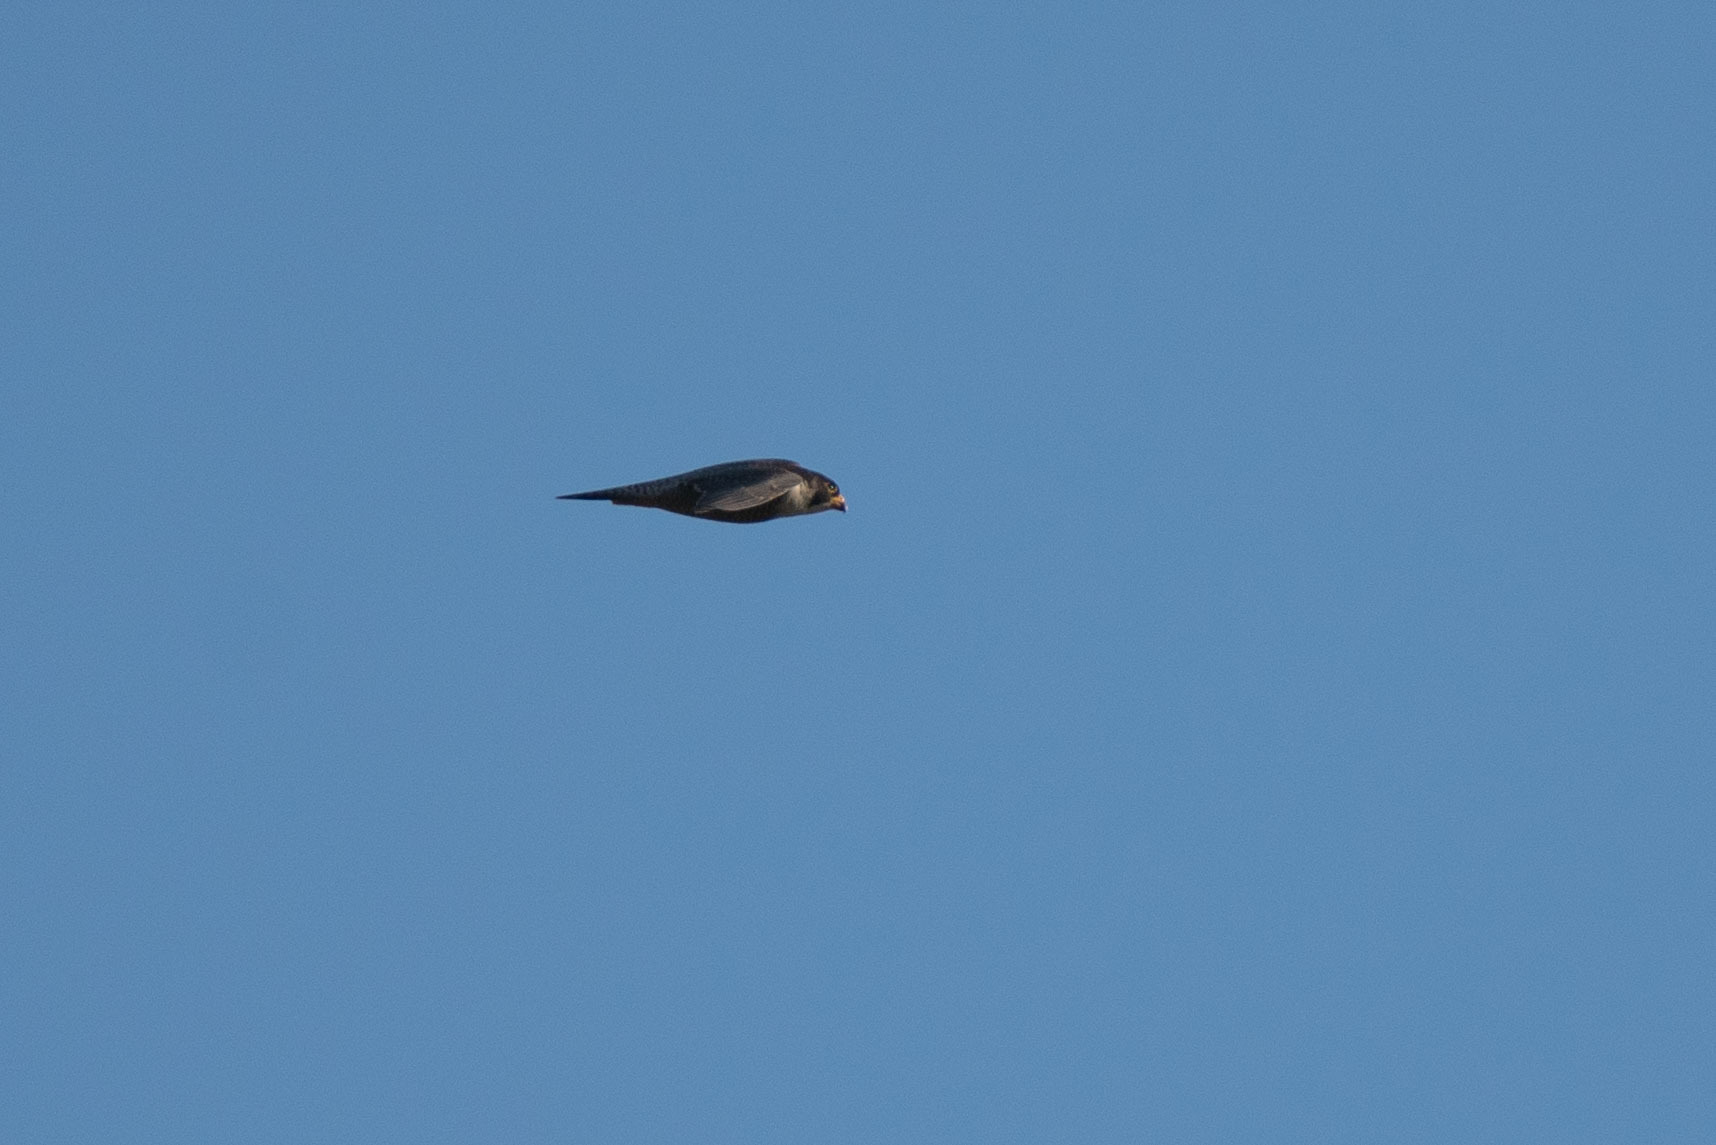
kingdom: Animalia
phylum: Chordata
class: Aves
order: Falconiformes
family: Falconidae
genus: Falco
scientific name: Falco peregrinus
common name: Peregrine falcon
